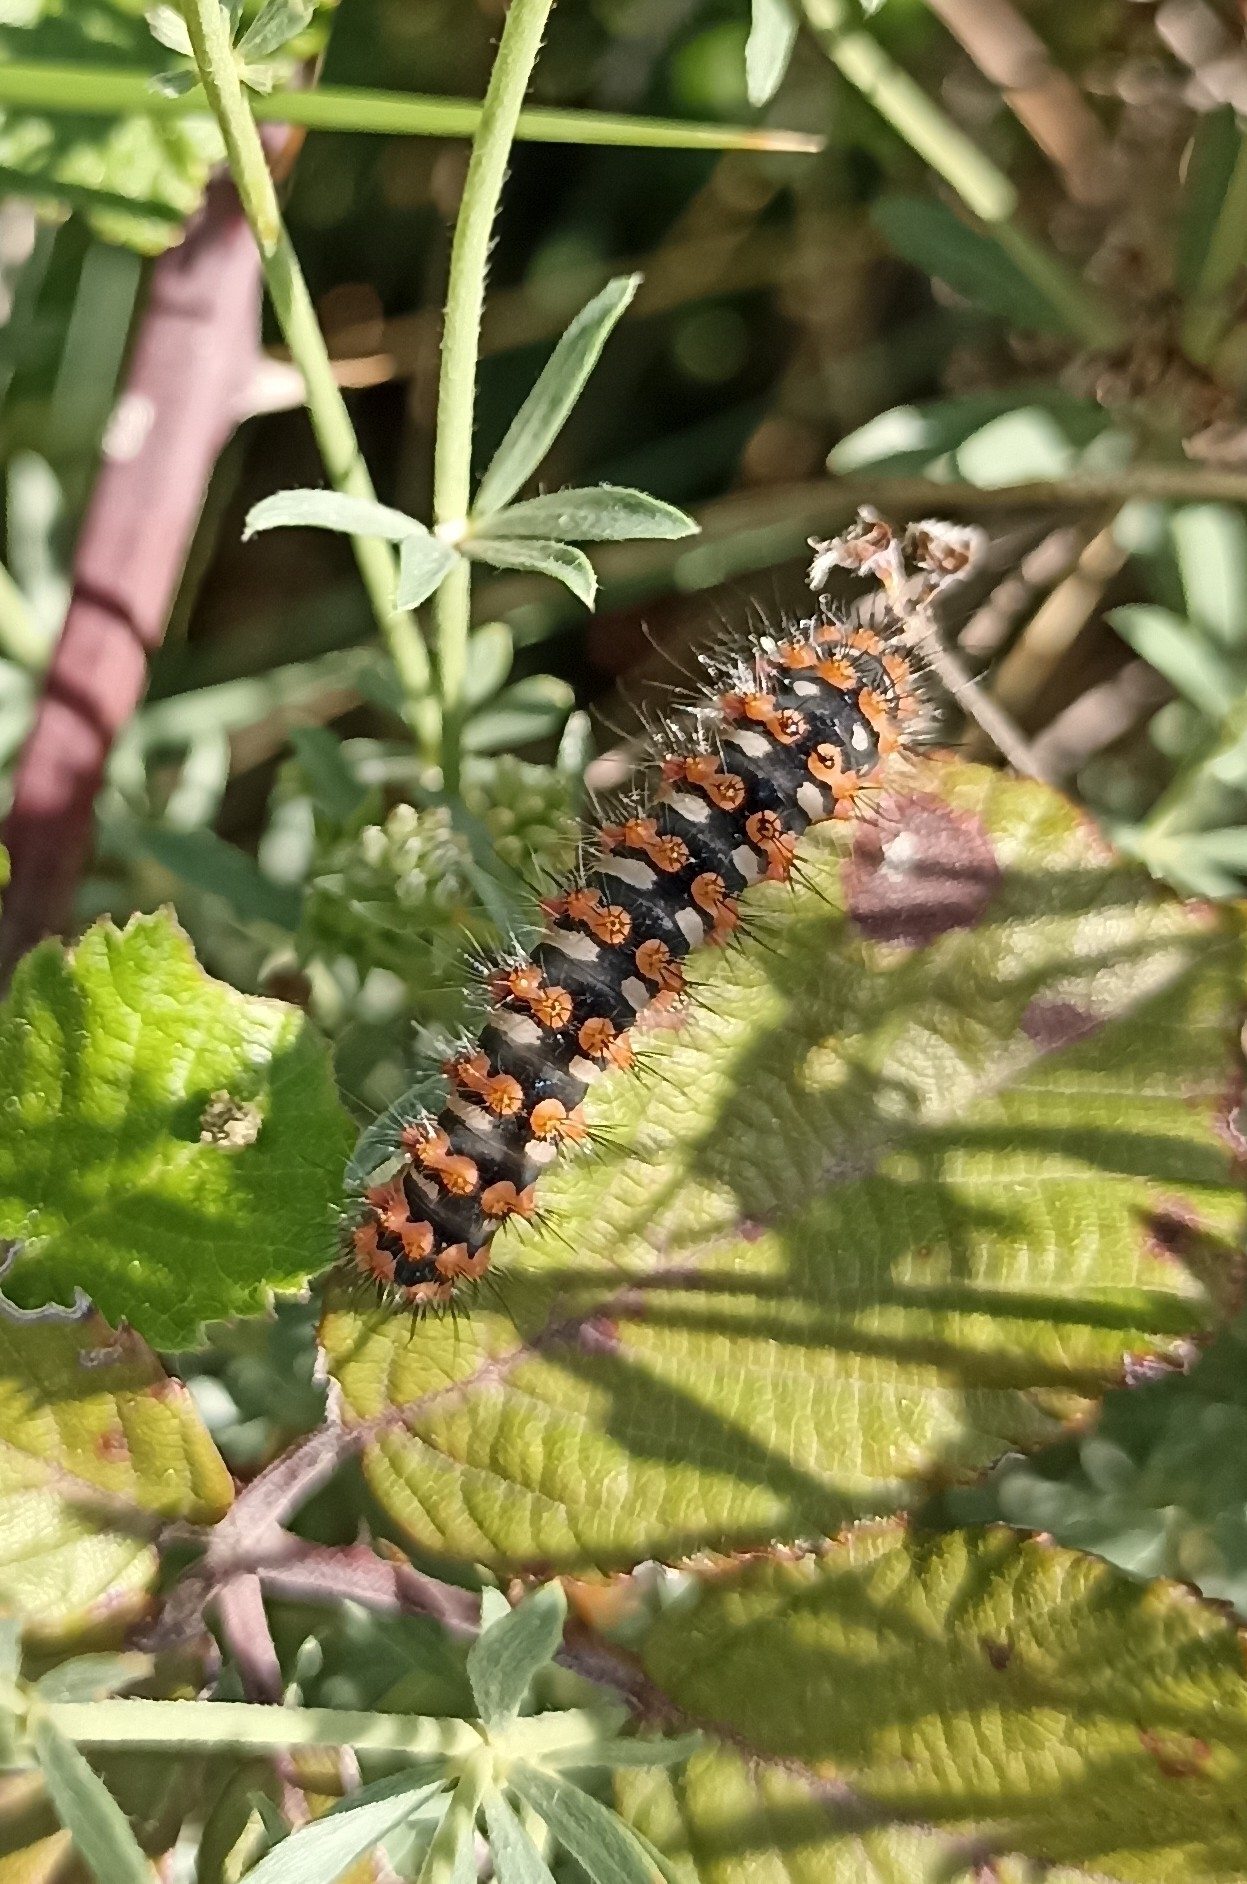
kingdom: Animalia
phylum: Arthropoda
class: Insecta
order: Lepidoptera
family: Saturniidae
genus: Saturnia
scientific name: Saturnia pavonia
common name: Emperor moth
